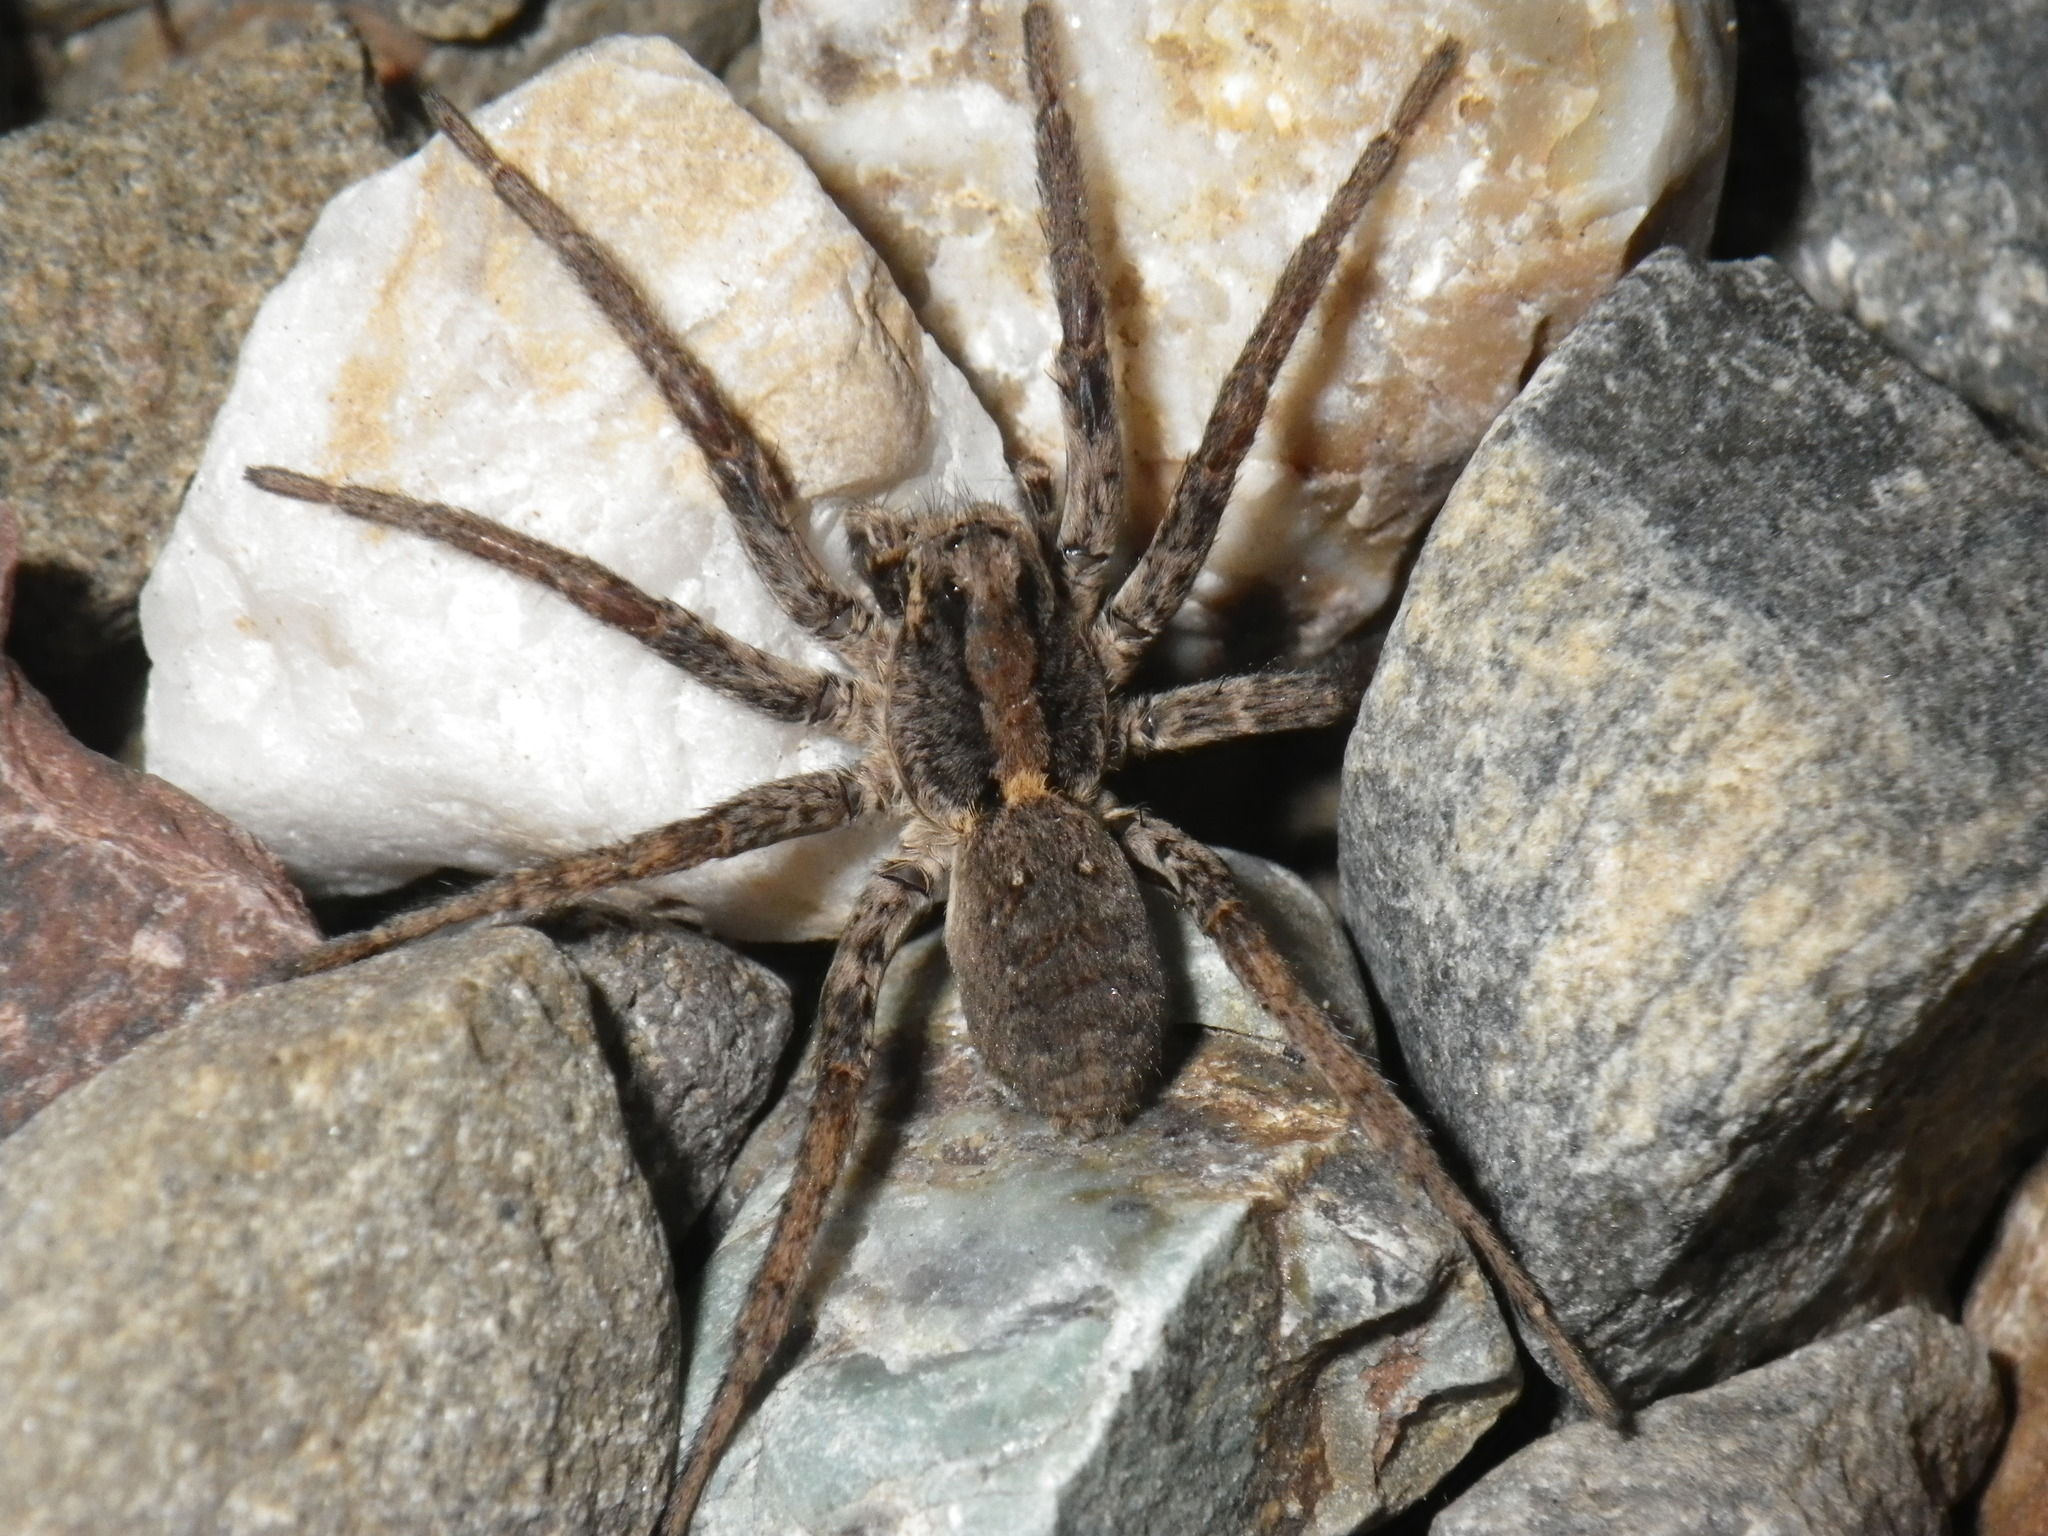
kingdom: Animalia
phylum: Arthropoda
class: Arachnida
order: Araneae
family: Lycosidae
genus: Alopecosa
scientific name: Alopecosa kochi
